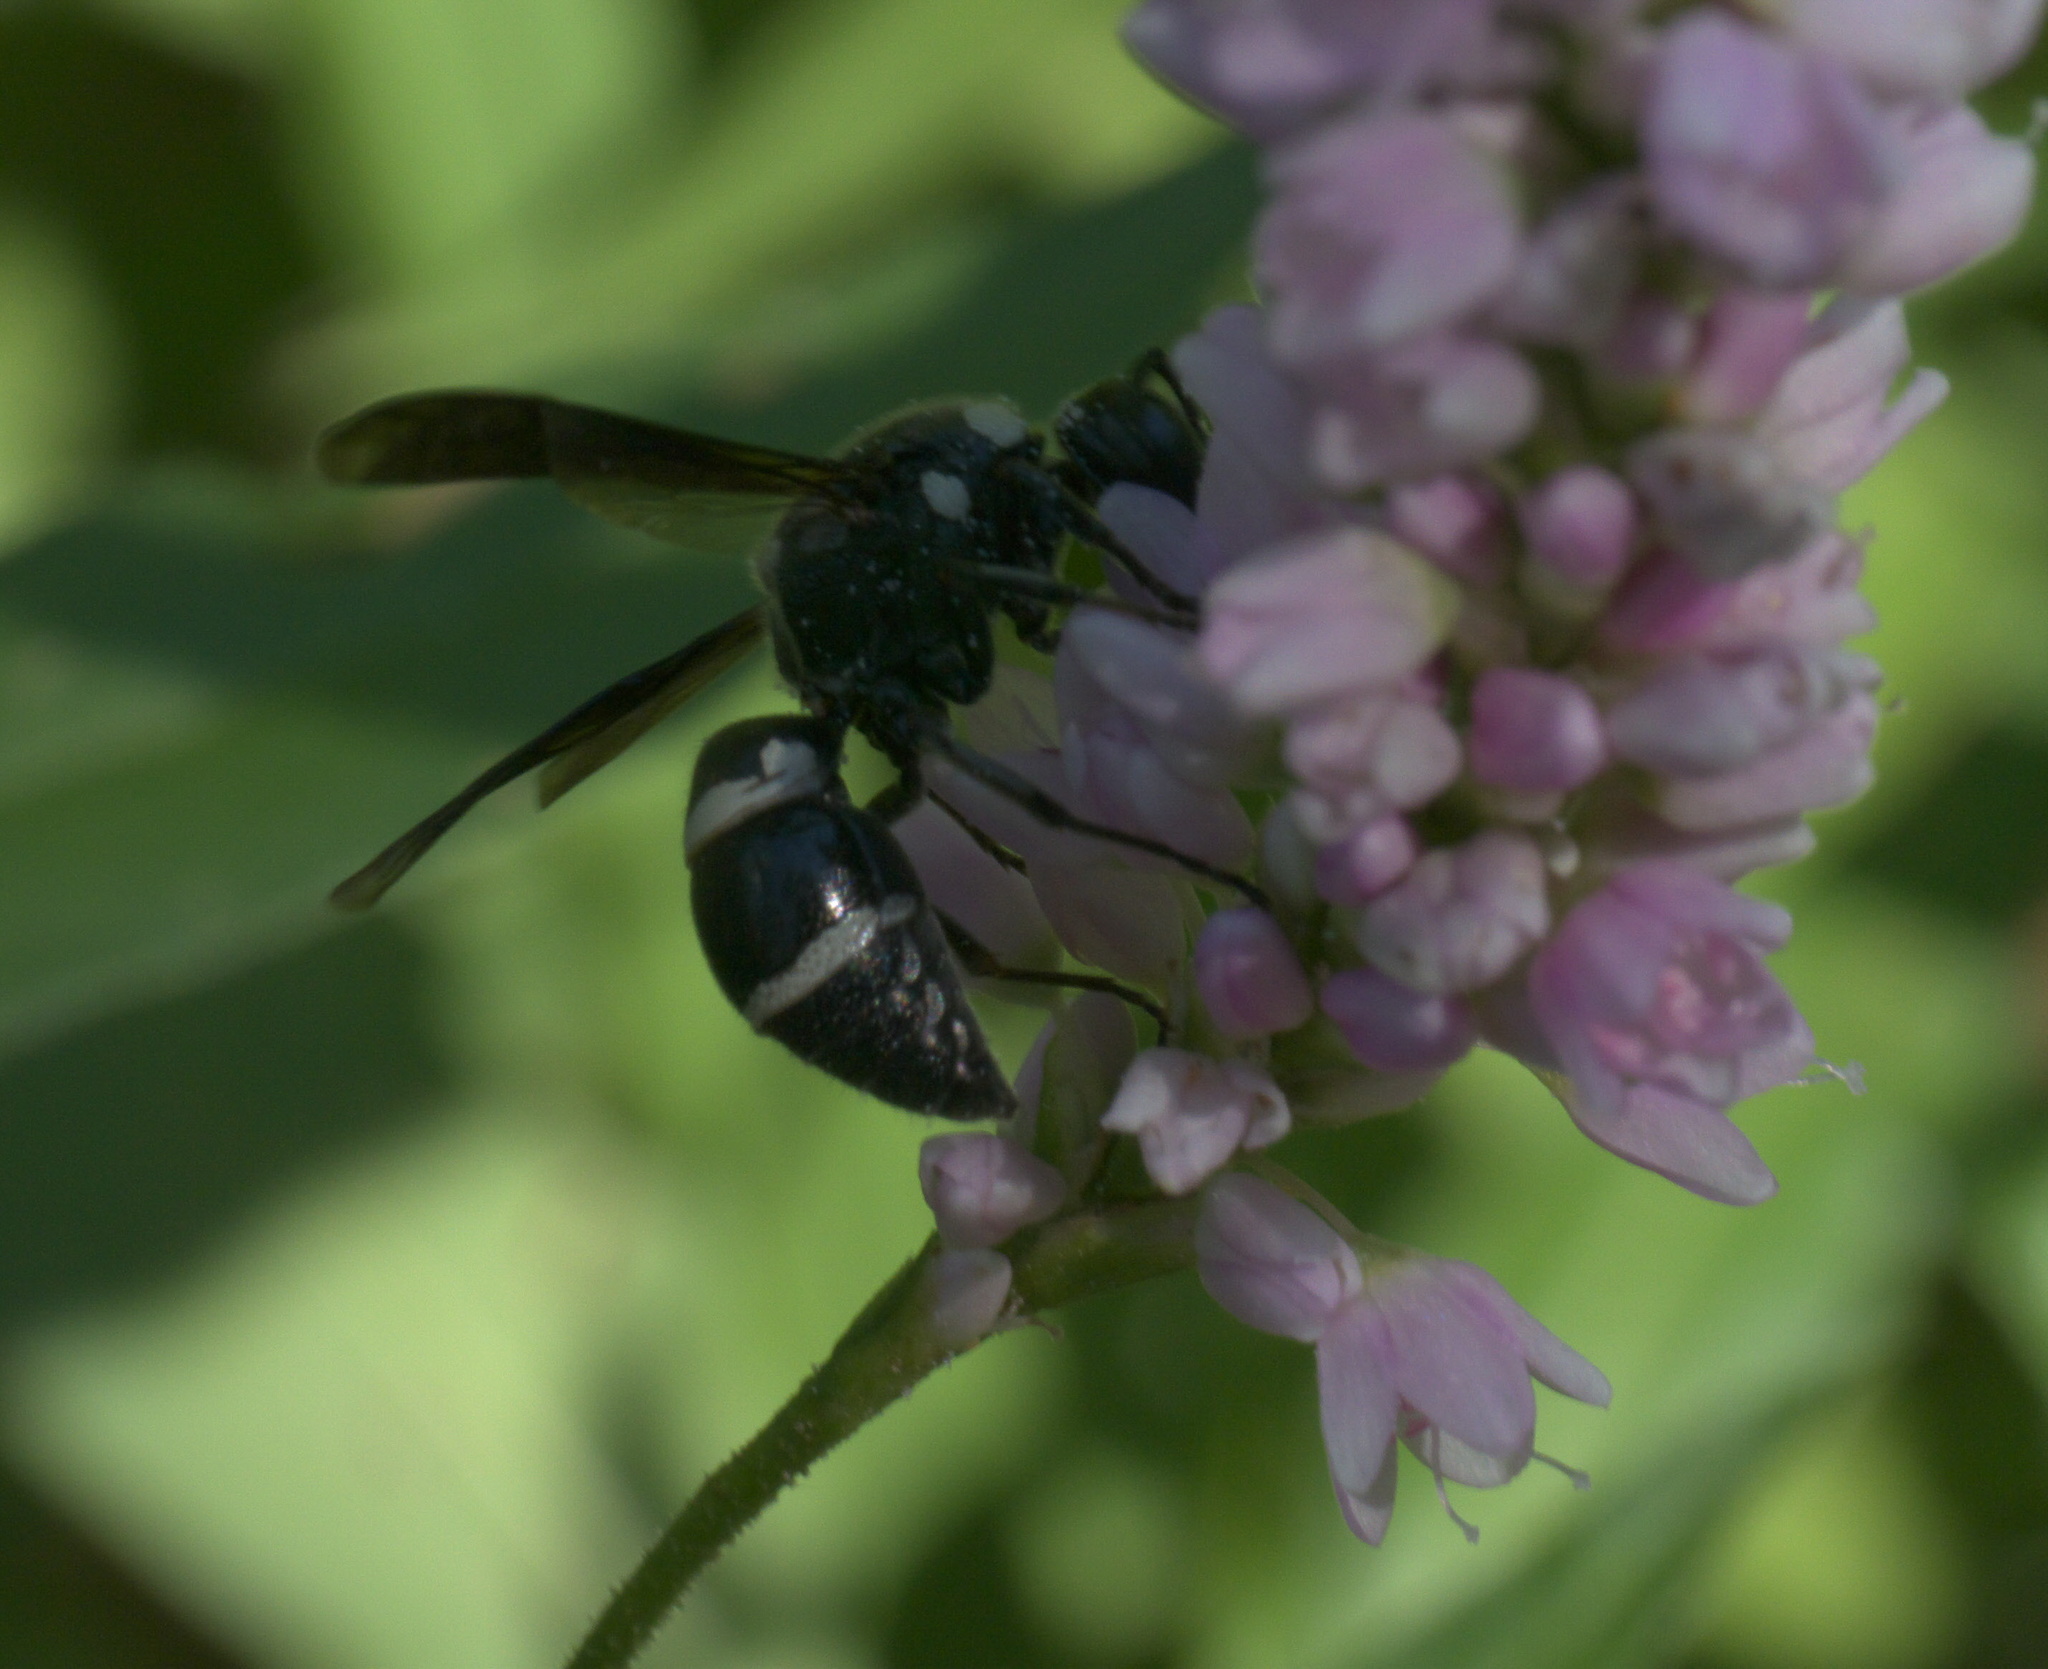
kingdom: Animalia
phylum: Arthropoda
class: Insecta
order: Hymenoptera
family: Eumenidae
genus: Euodynerus
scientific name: Euodynerus schwarzi
